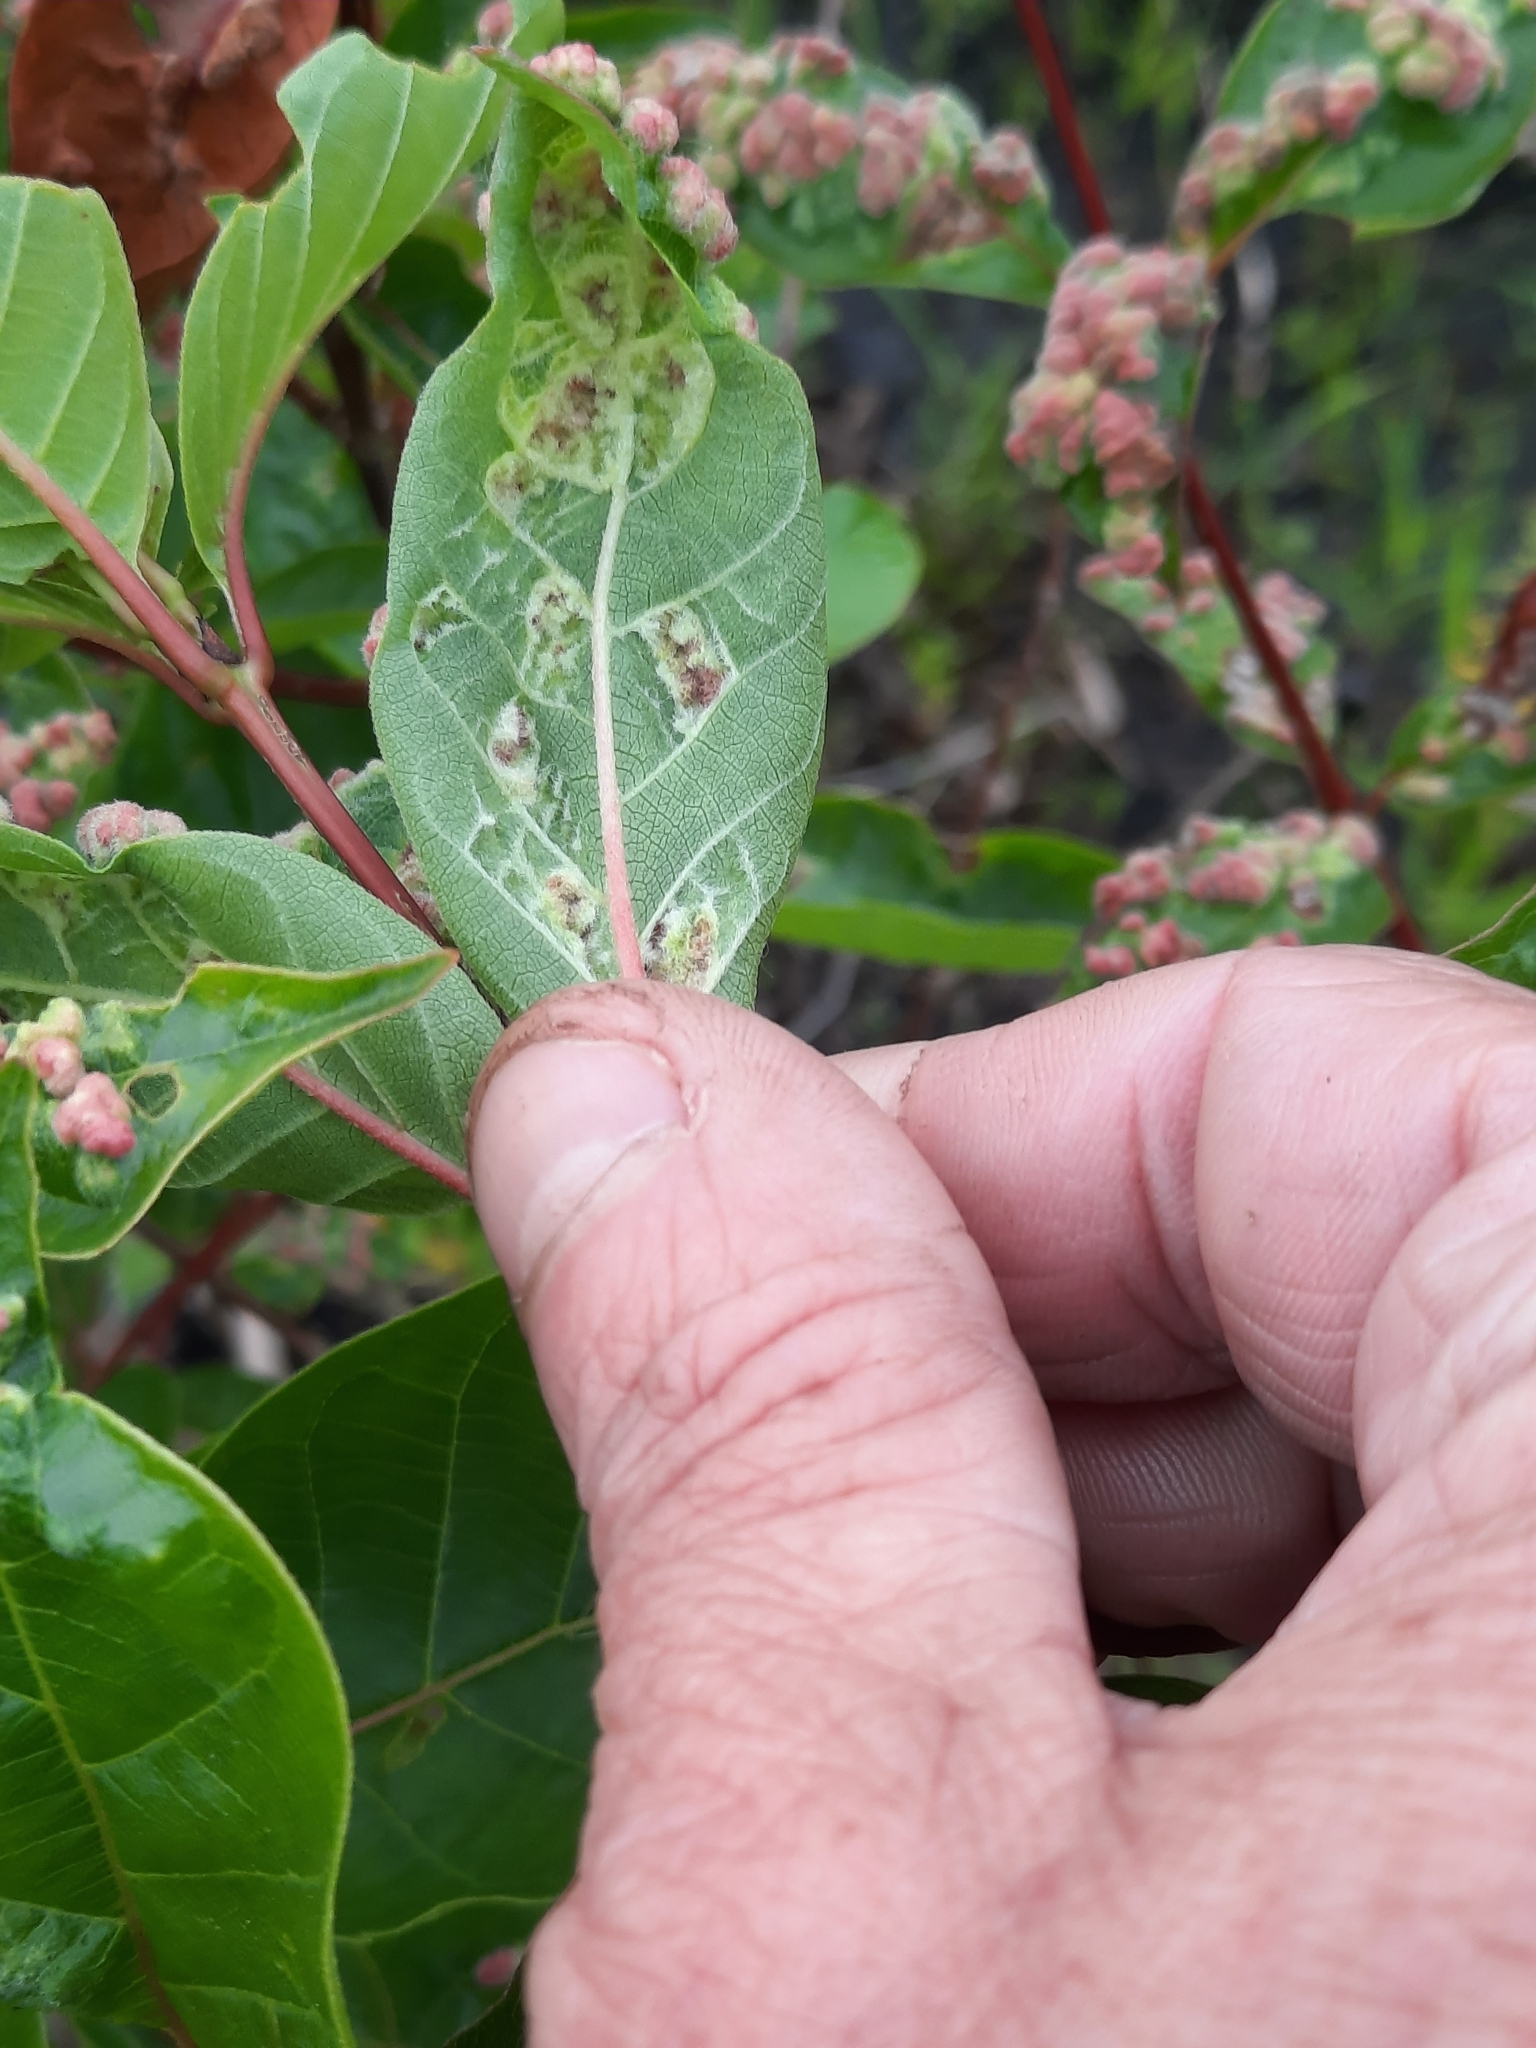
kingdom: Animalia
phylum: Arthropoda
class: Arachnida
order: Trombidiformes
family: Eriophyidae
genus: Aceria
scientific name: Aceria
